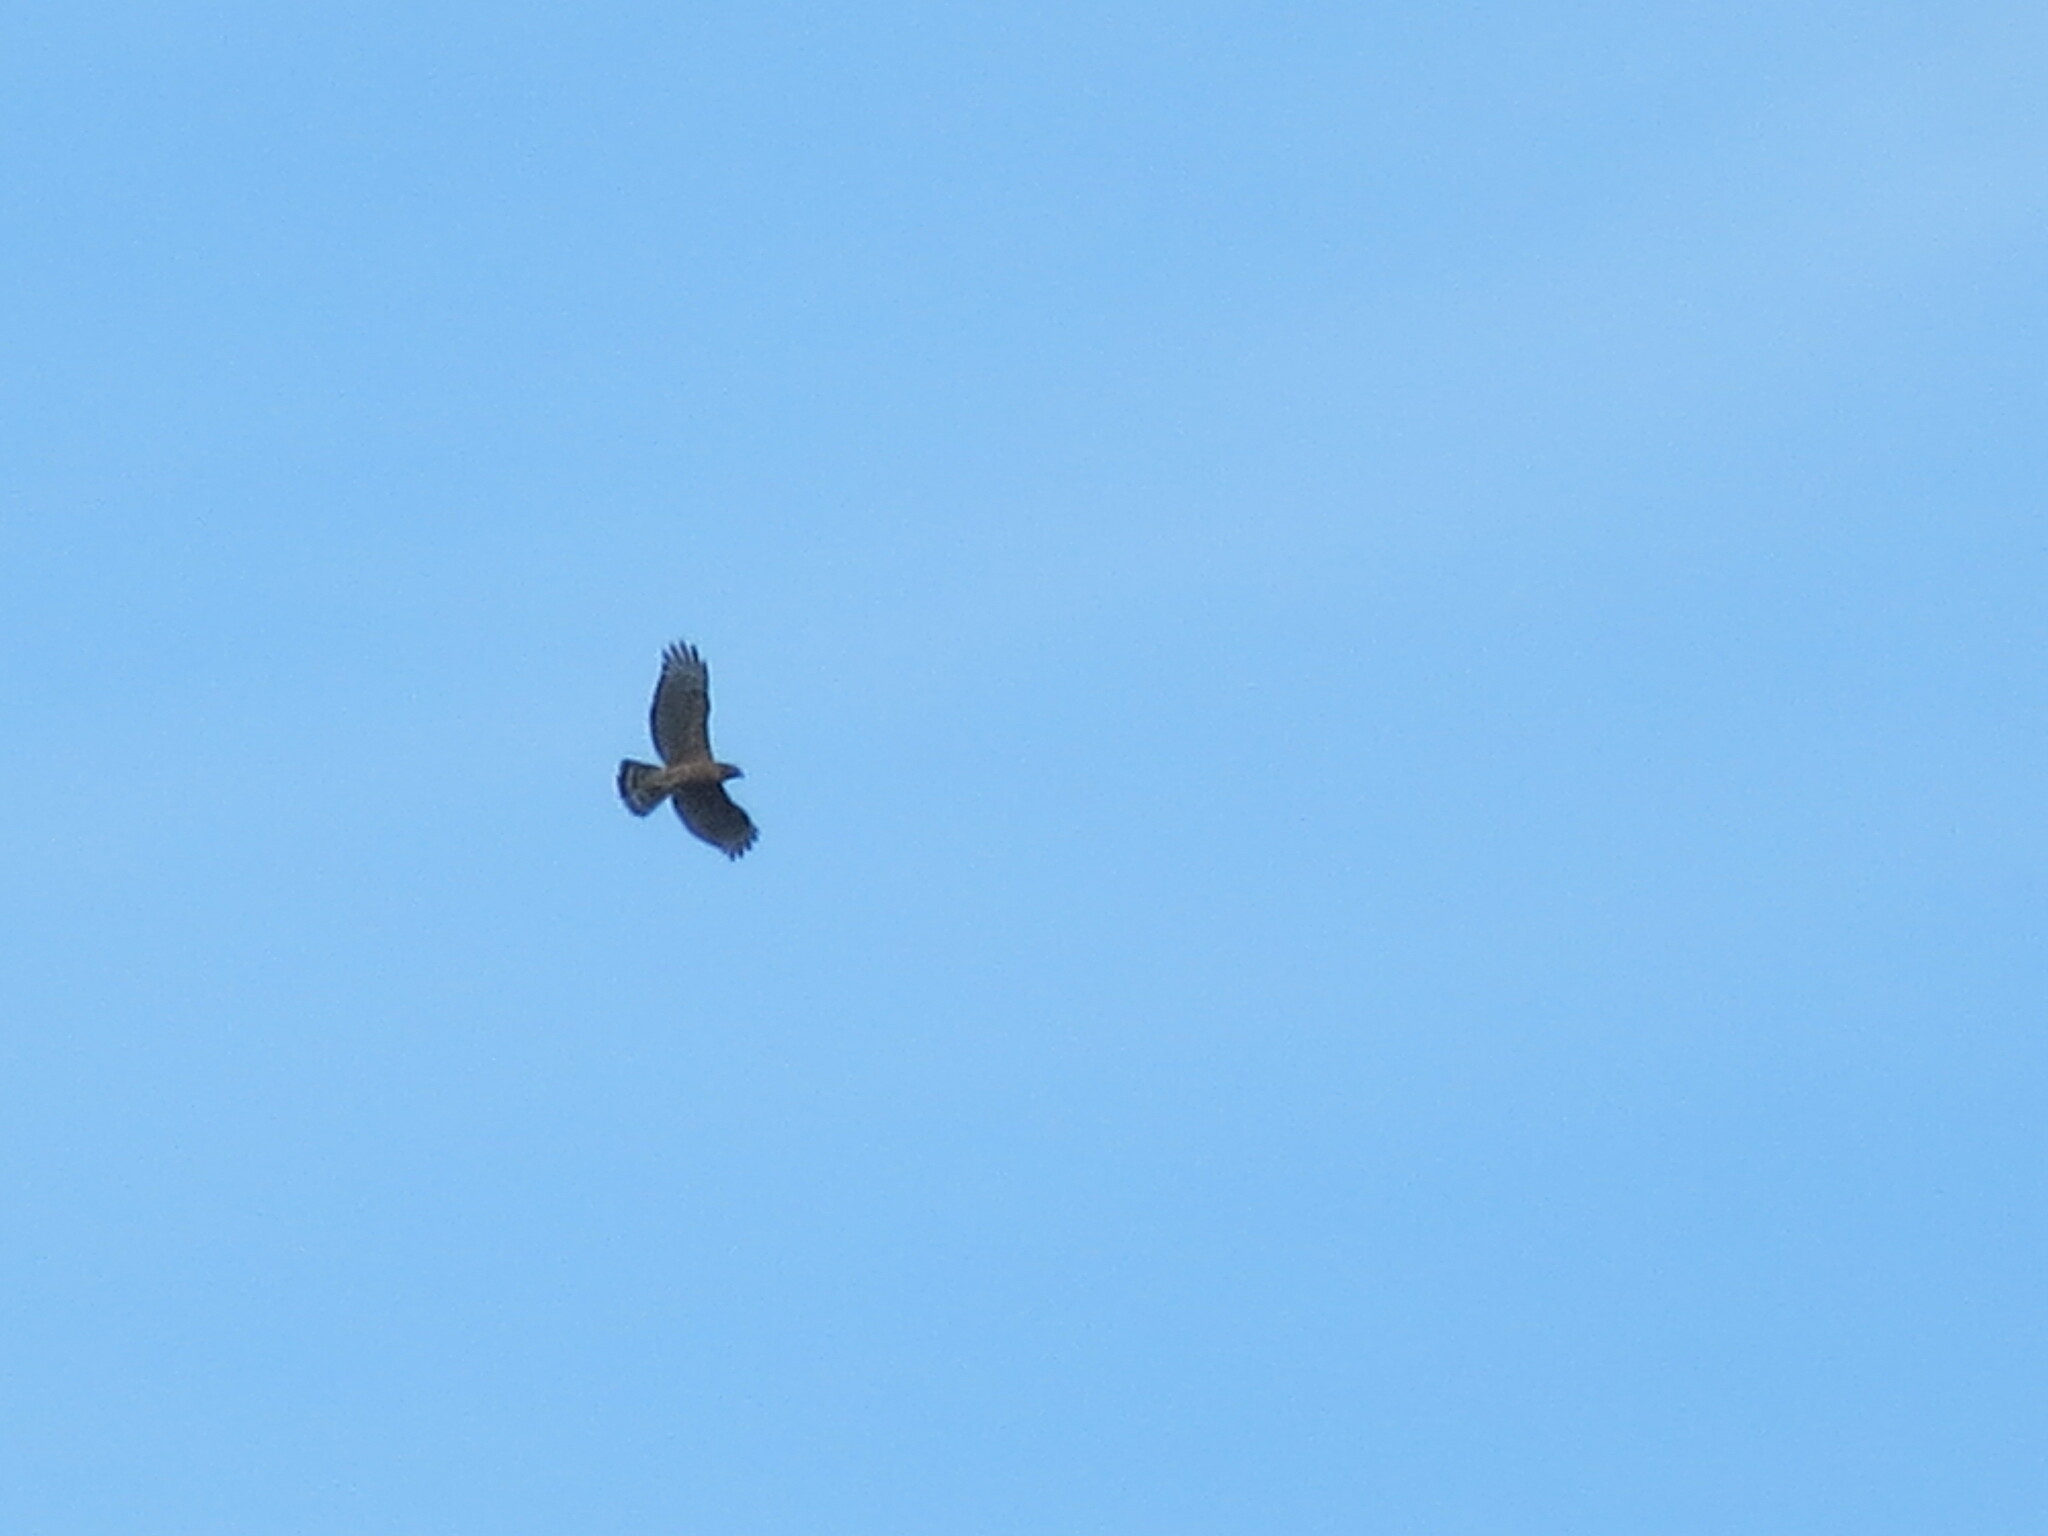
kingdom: Animalia
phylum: Chordata
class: Aves
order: Accipitriformes
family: Accipitridae
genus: Buteo
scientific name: Buteo lineatus
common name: Red-shouldered hawk
